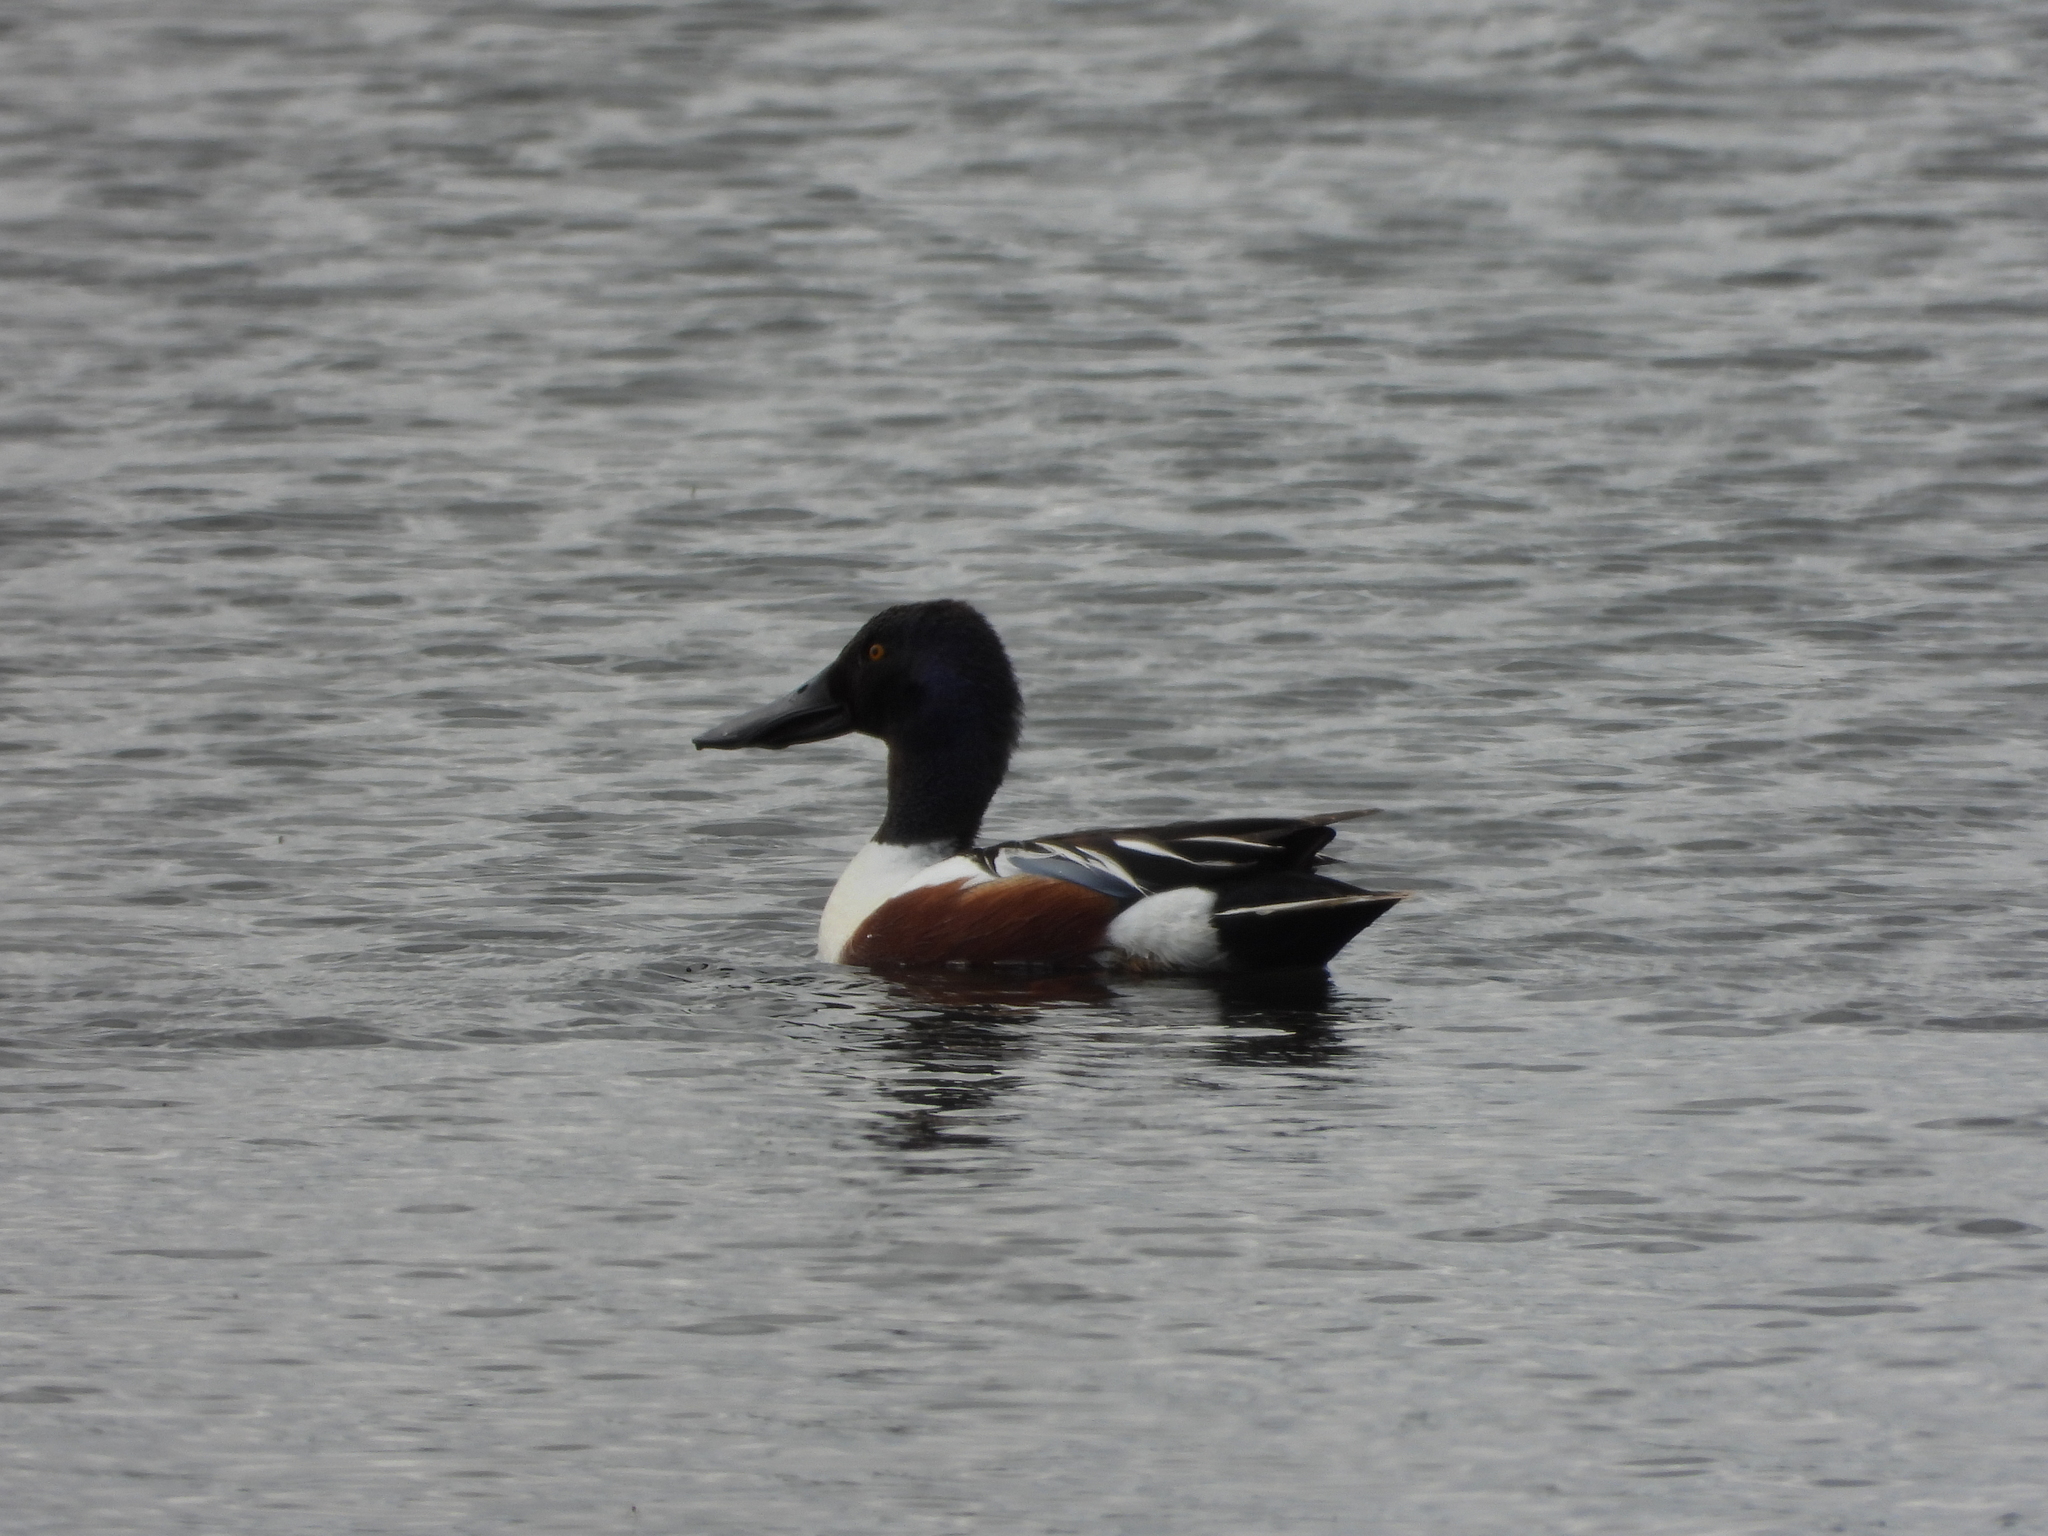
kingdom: Animalia
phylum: Chordata
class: Aves
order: Anseriformes
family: Anatidae
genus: Spatula
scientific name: Spatula clypeata
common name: Northern shoveler
